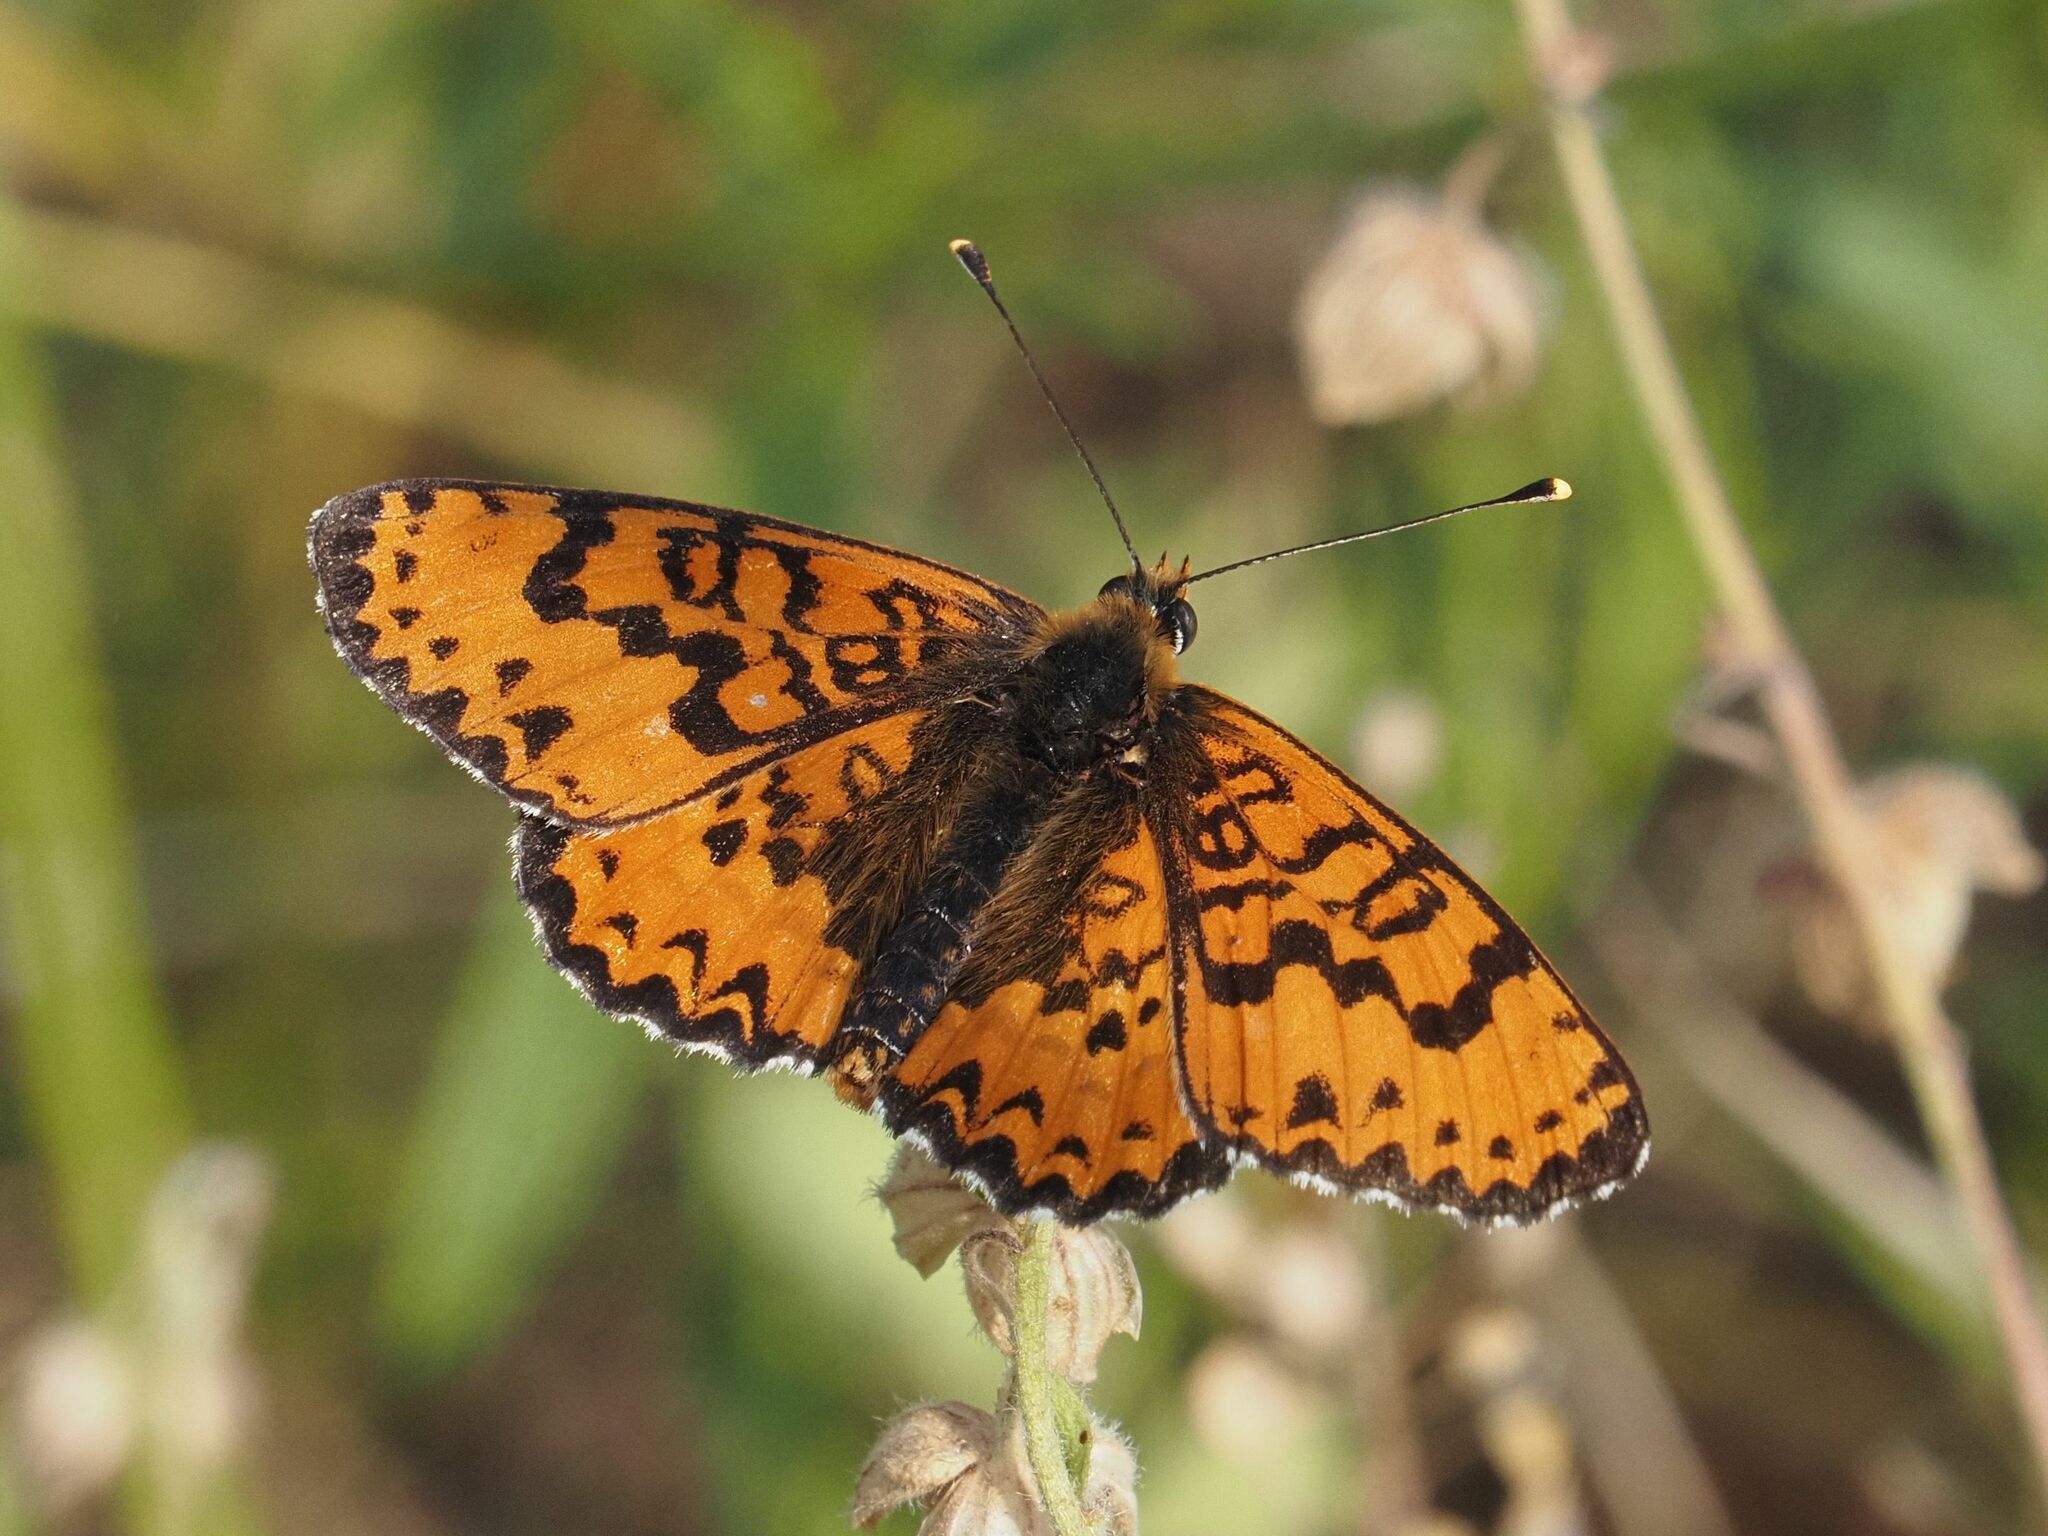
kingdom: Animalia
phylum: Arthropoda
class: Insecta
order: Lepidoptera
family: Nymphalidae
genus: Melitaea
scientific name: Melitaea didyma
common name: Spotted fritillary
